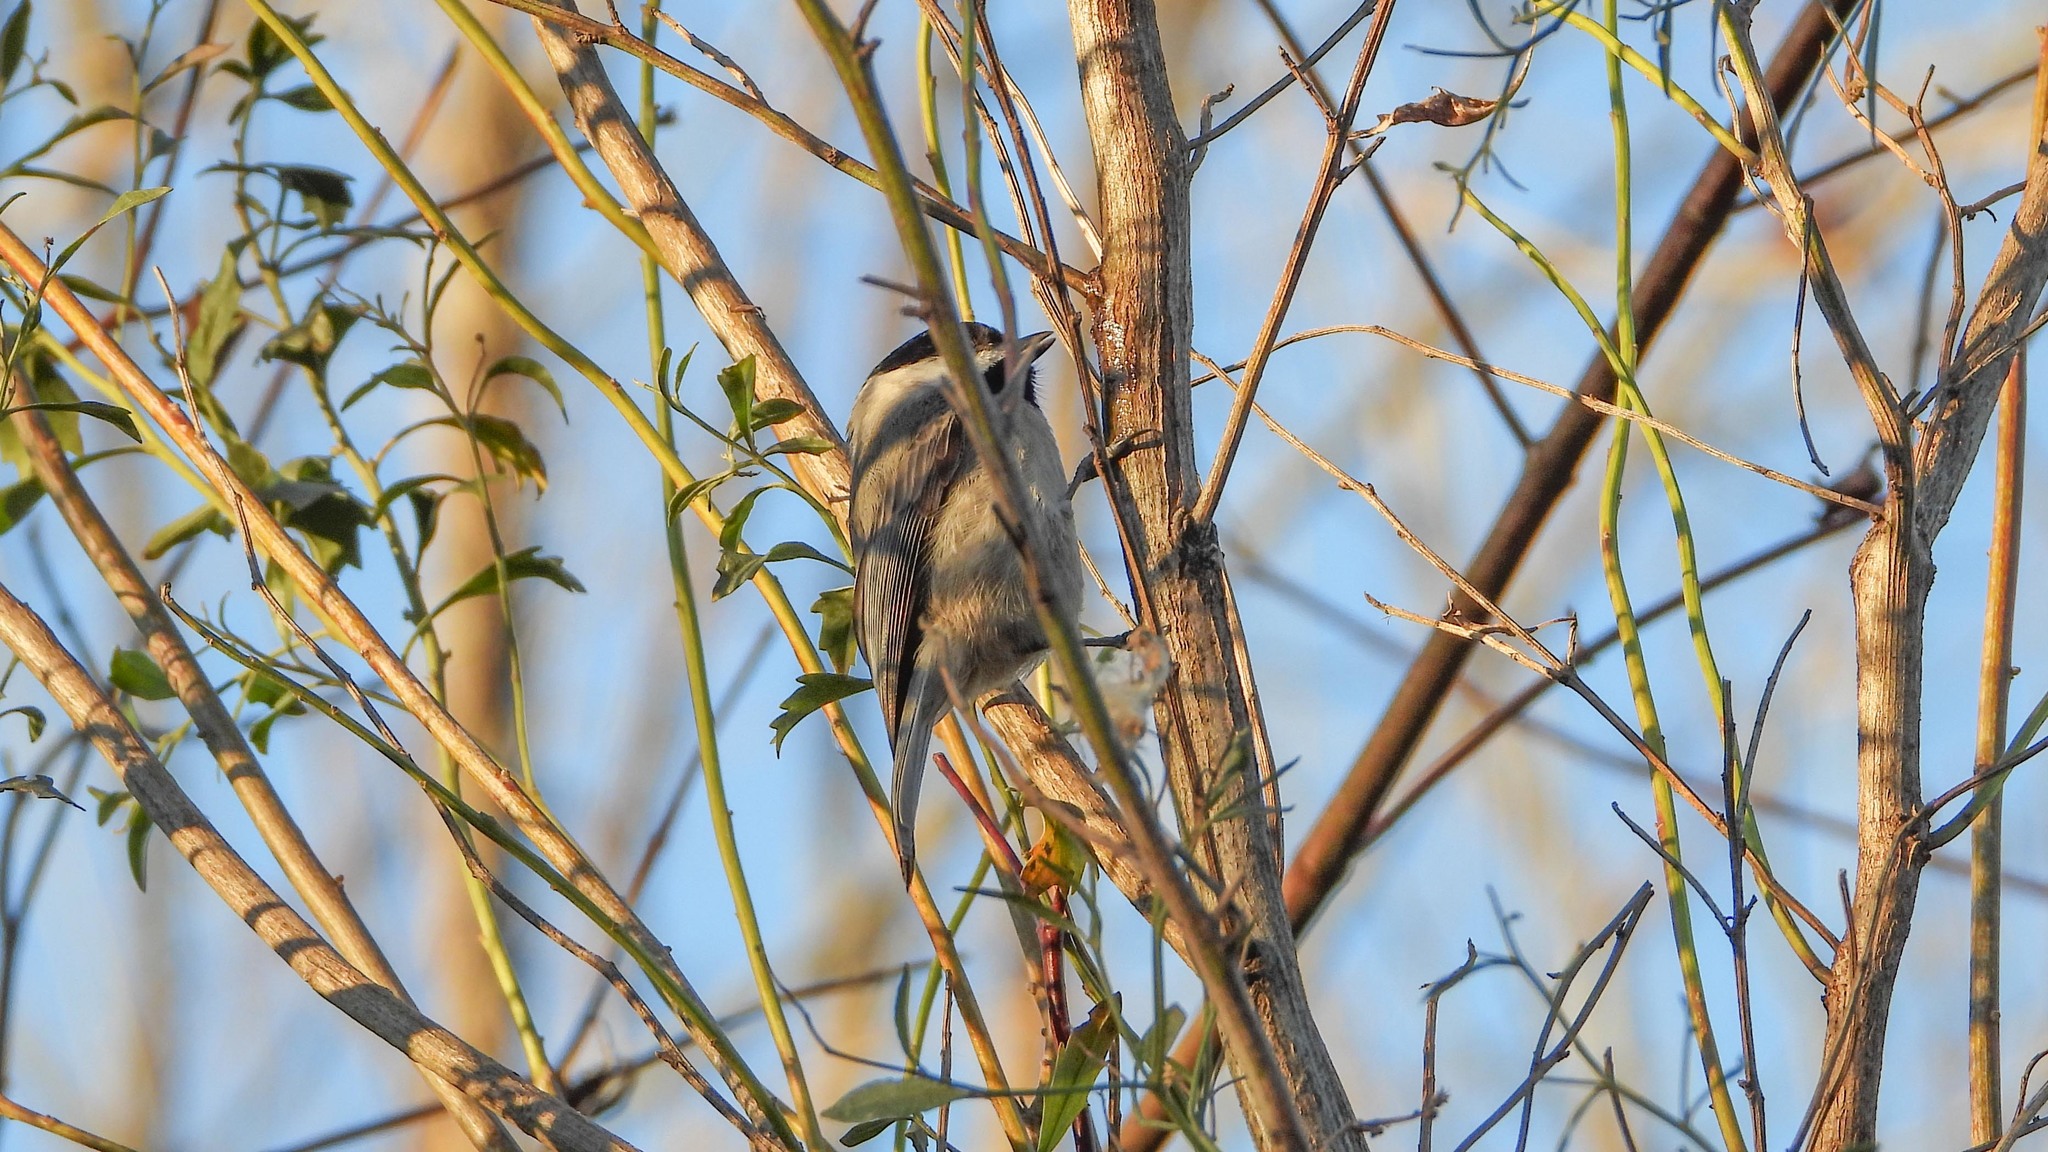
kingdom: Animalia
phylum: Chordata
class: Aves
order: Passeriformes
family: Paridae
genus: Poecile
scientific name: Poecile carolinensis
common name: Carolina chickadee
